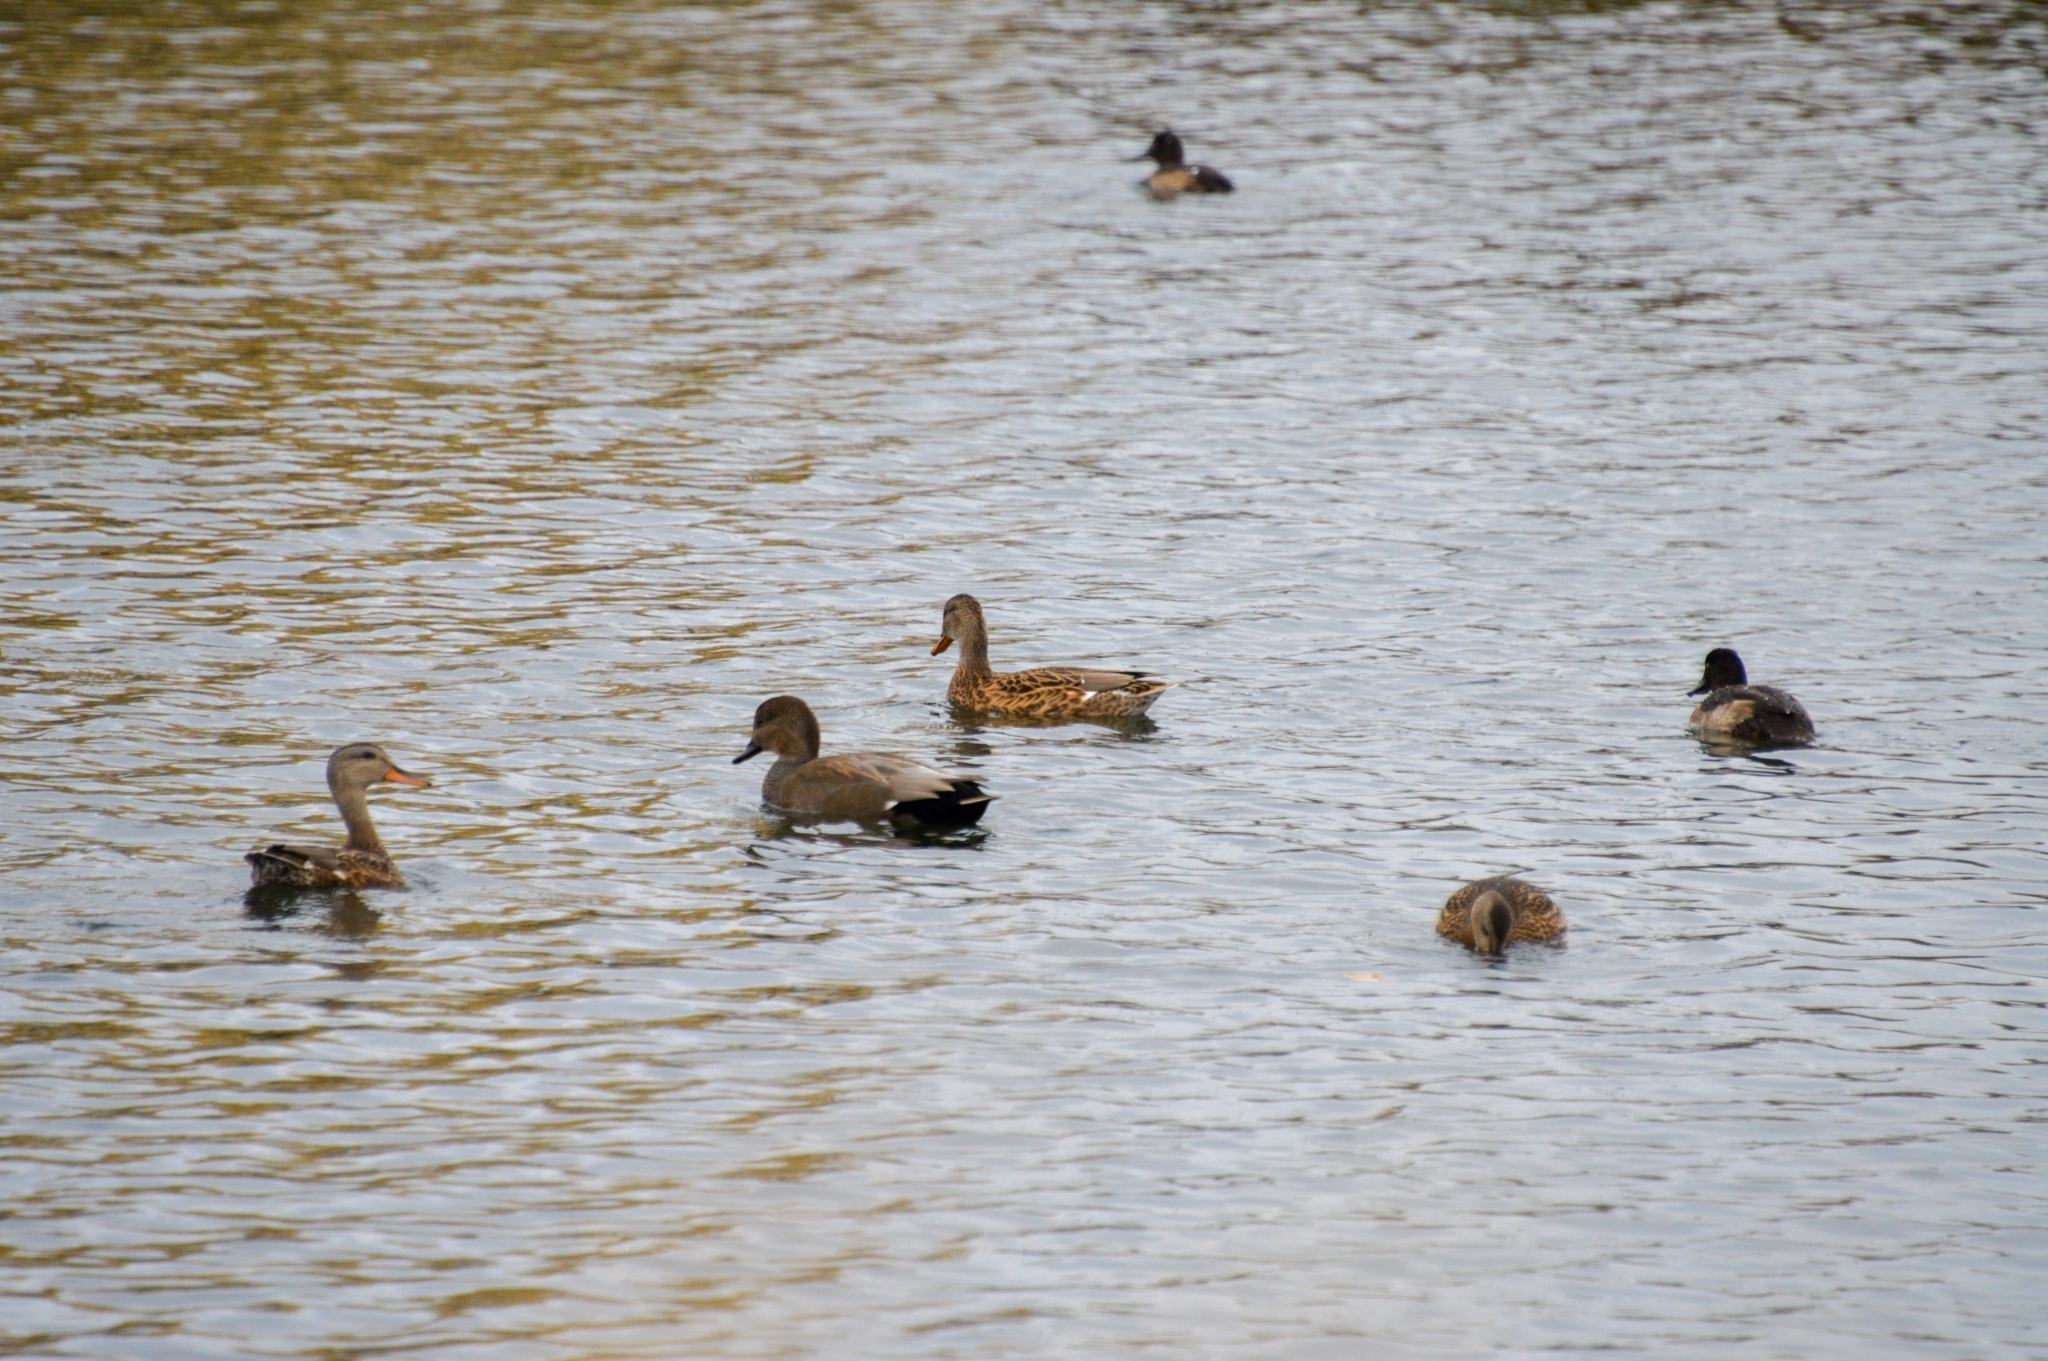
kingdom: Animalia
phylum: Chordata
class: Aves
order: Anseriformes
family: Anatidae
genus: Mareca
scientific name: Mareca strepera
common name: Gadwall
